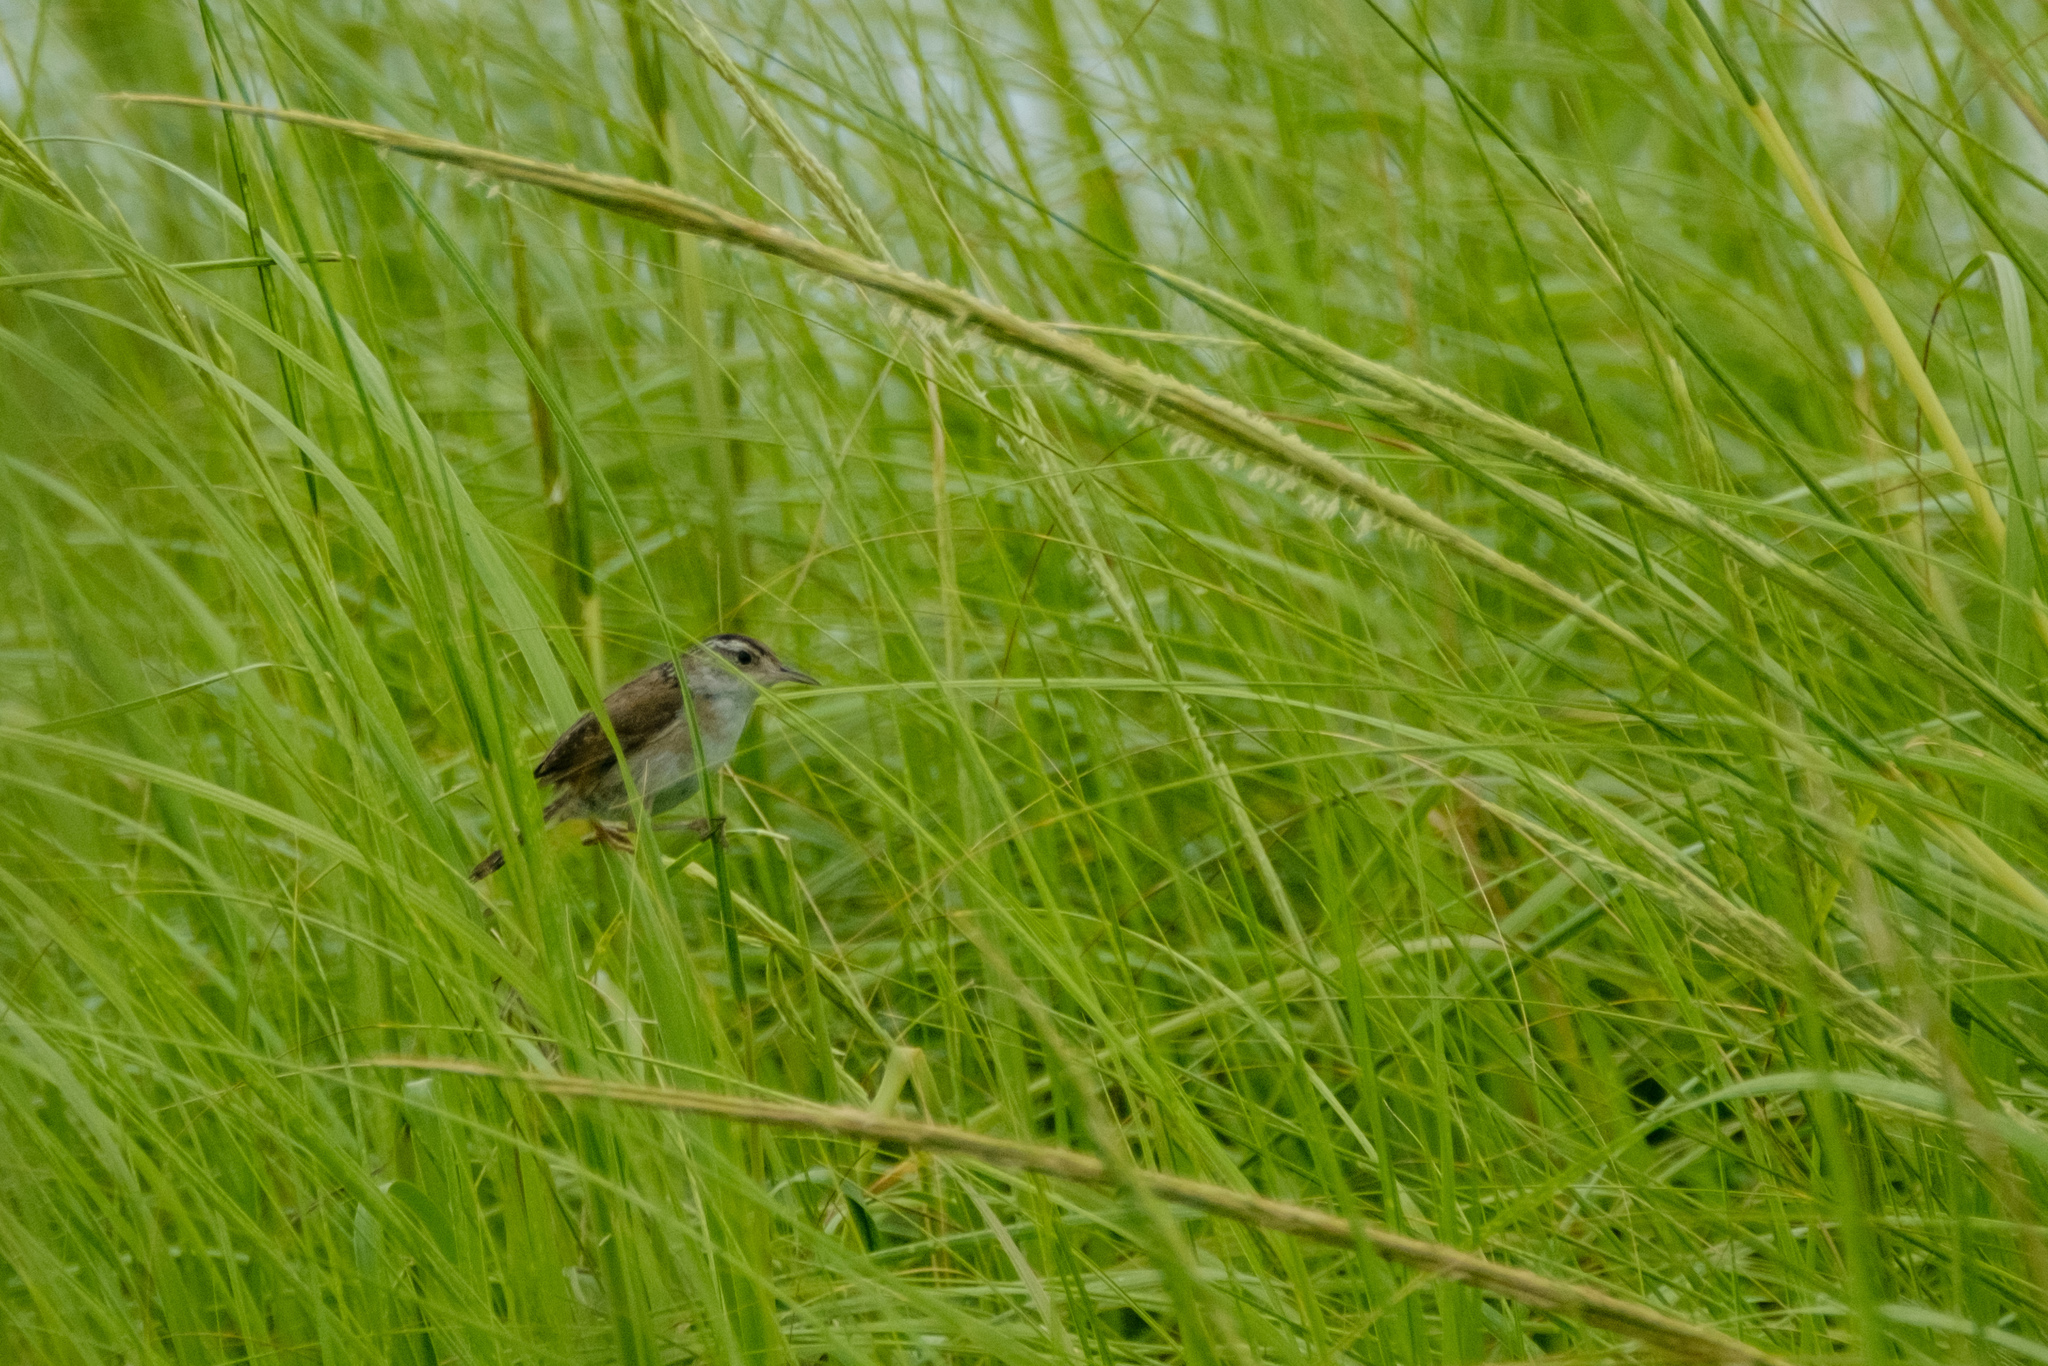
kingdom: Animalia
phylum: Chordata
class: Aves
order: Passeriformes
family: Troglodytidae
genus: Cistothorus
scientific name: Cistothorus palustris
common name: Marsh wren
